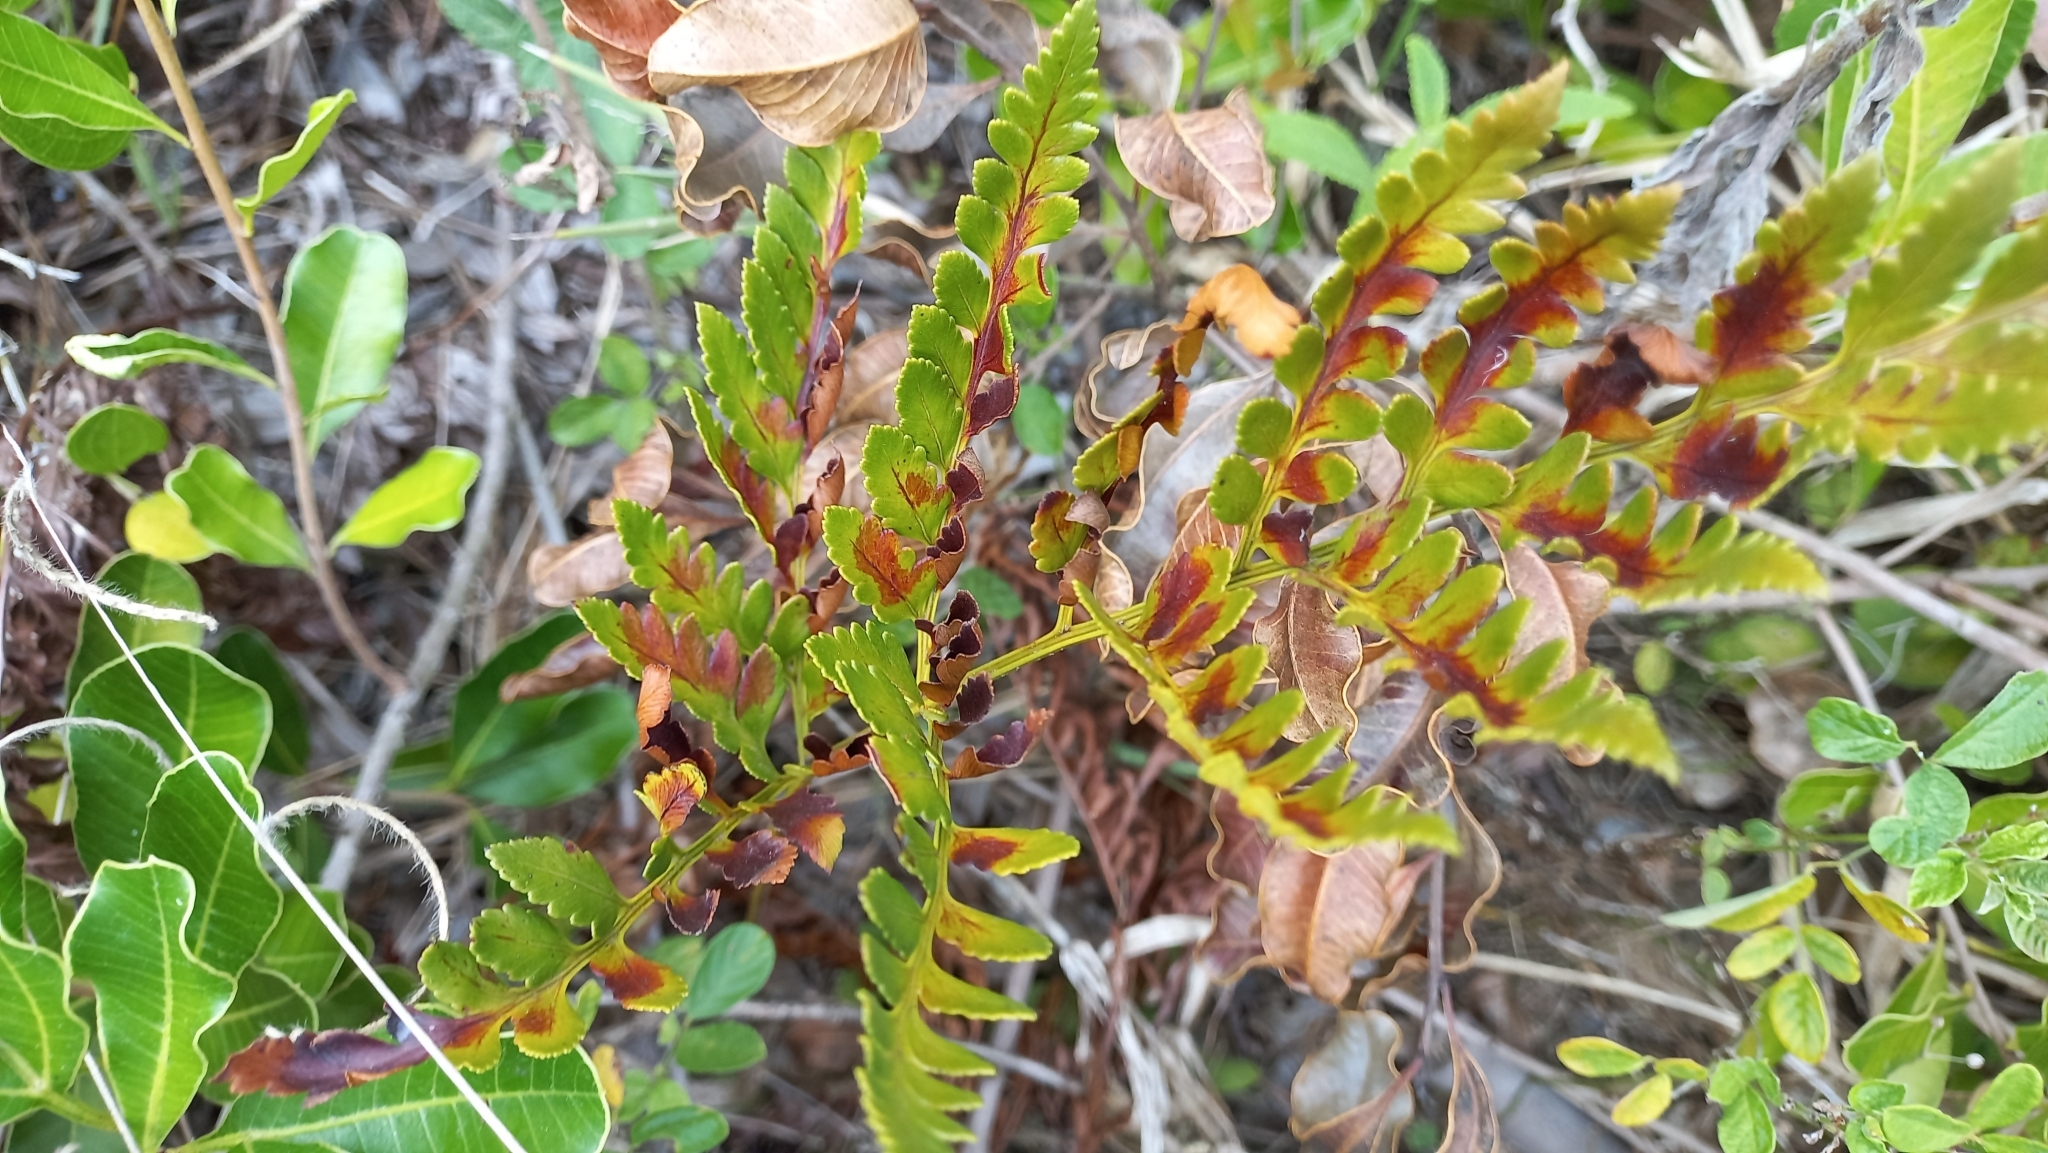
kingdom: Plantae
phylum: Tracheophyta
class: Polypodiopsida
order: Polypodiales
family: Dryopteridaceae
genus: Rumohra
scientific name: Rumohra adiantiformis
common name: Leather fern
